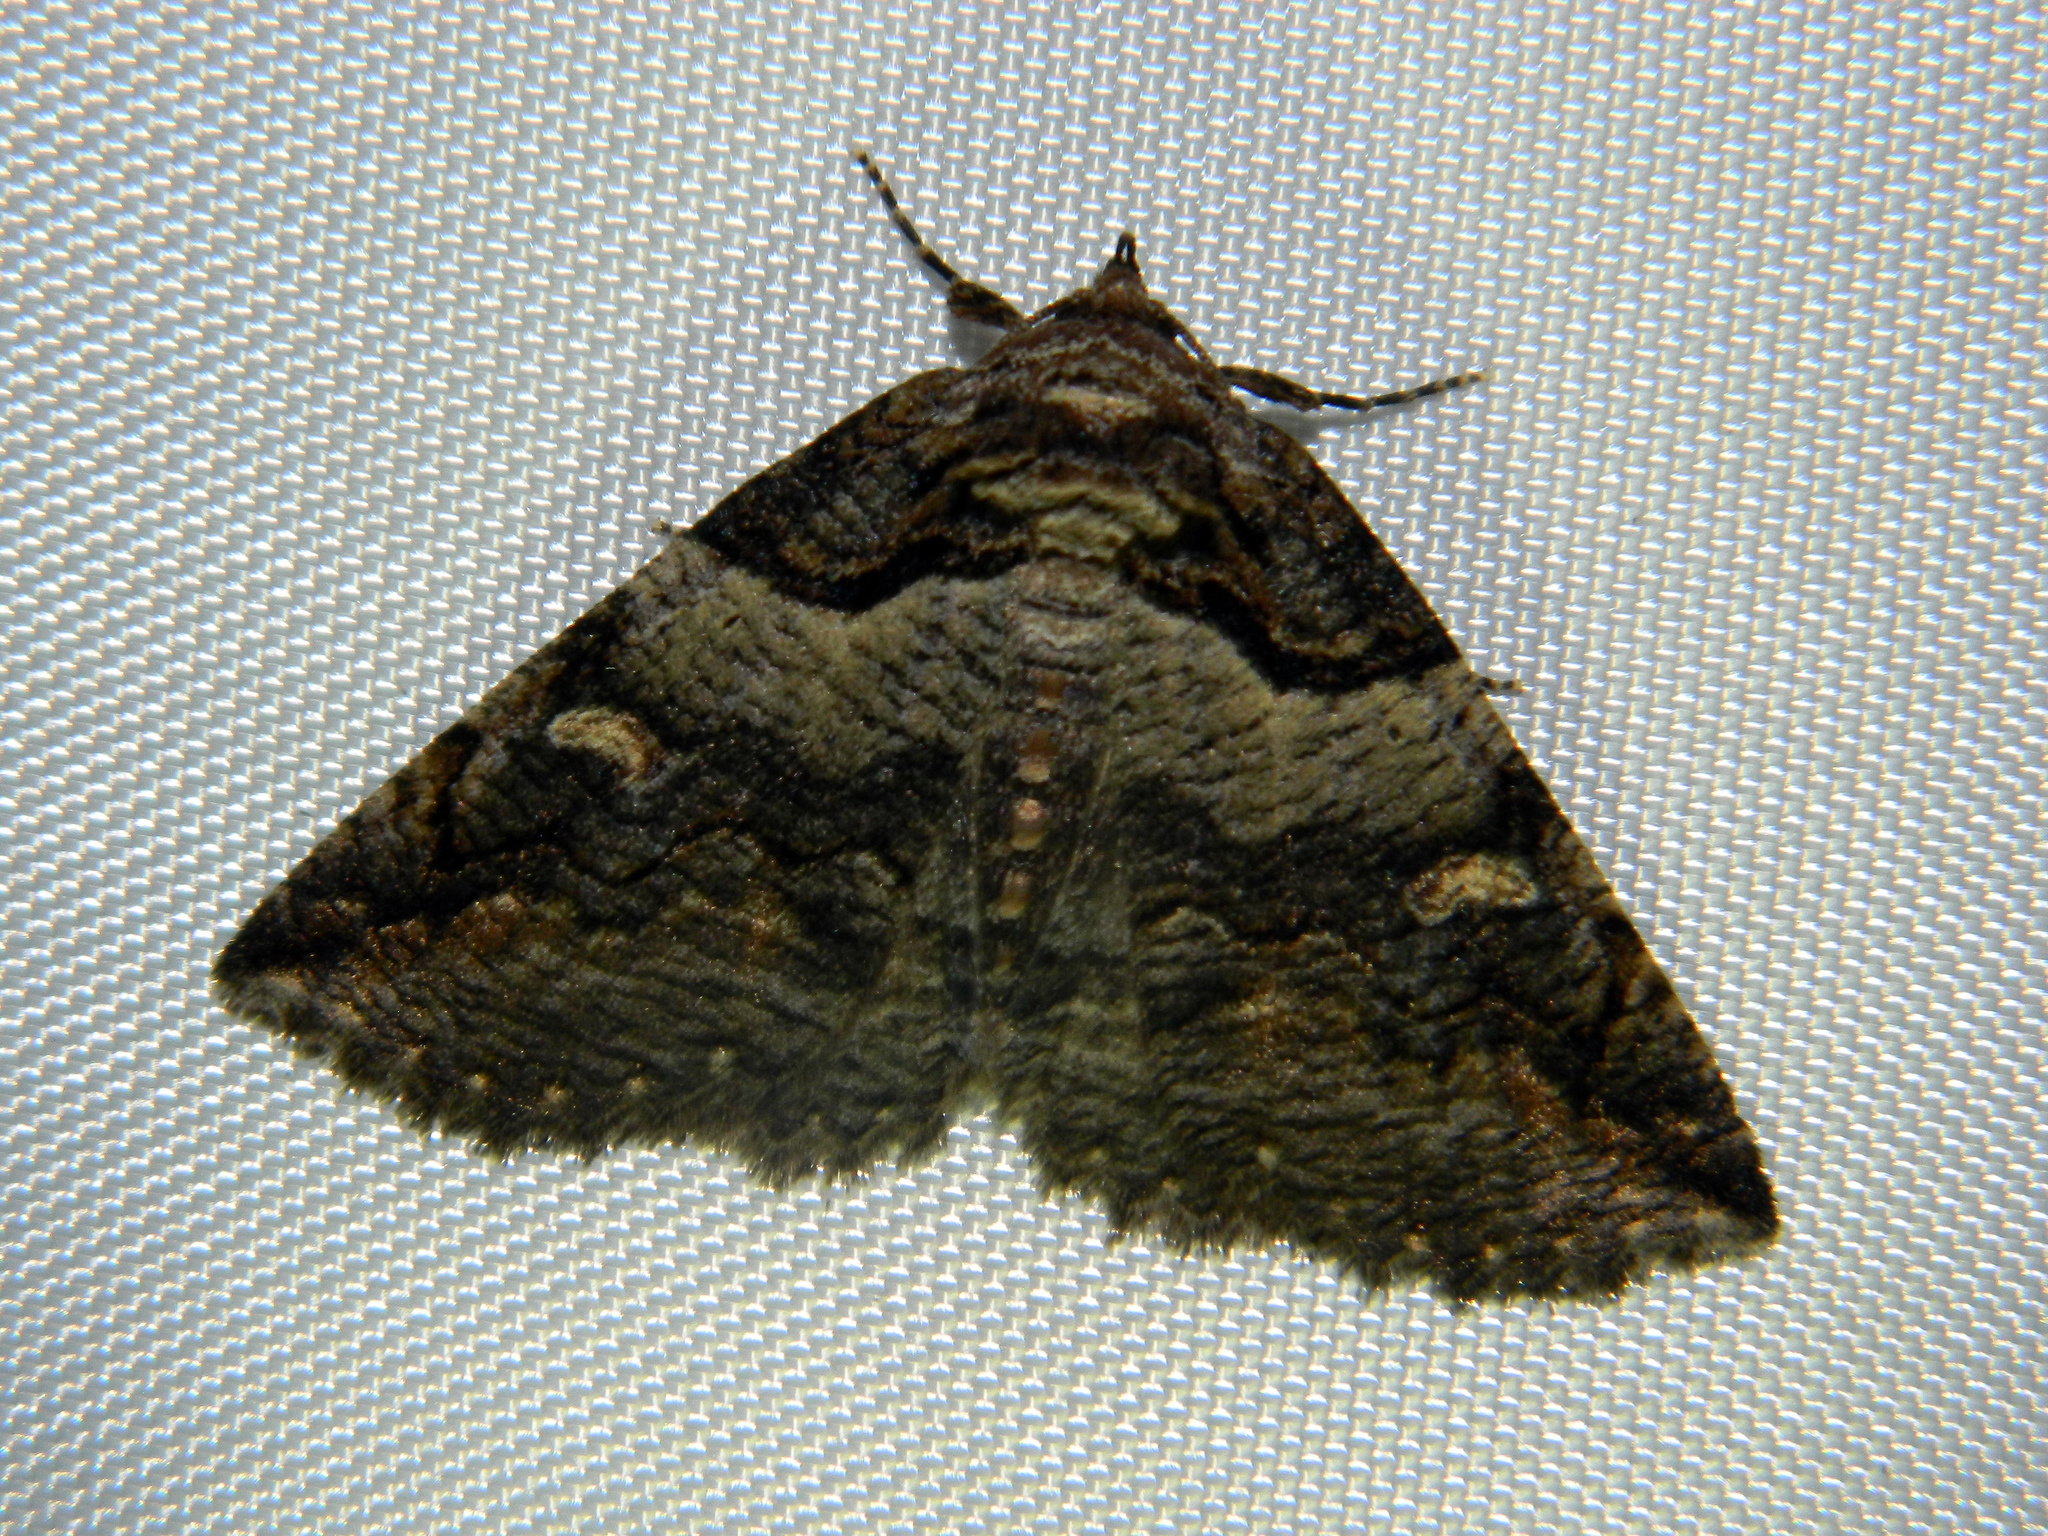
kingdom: Animalia
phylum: Arthropoda
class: Insecta
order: Lepidoptera
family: Erebidae
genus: Zale
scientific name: Zale intenta
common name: Intent zale moth
